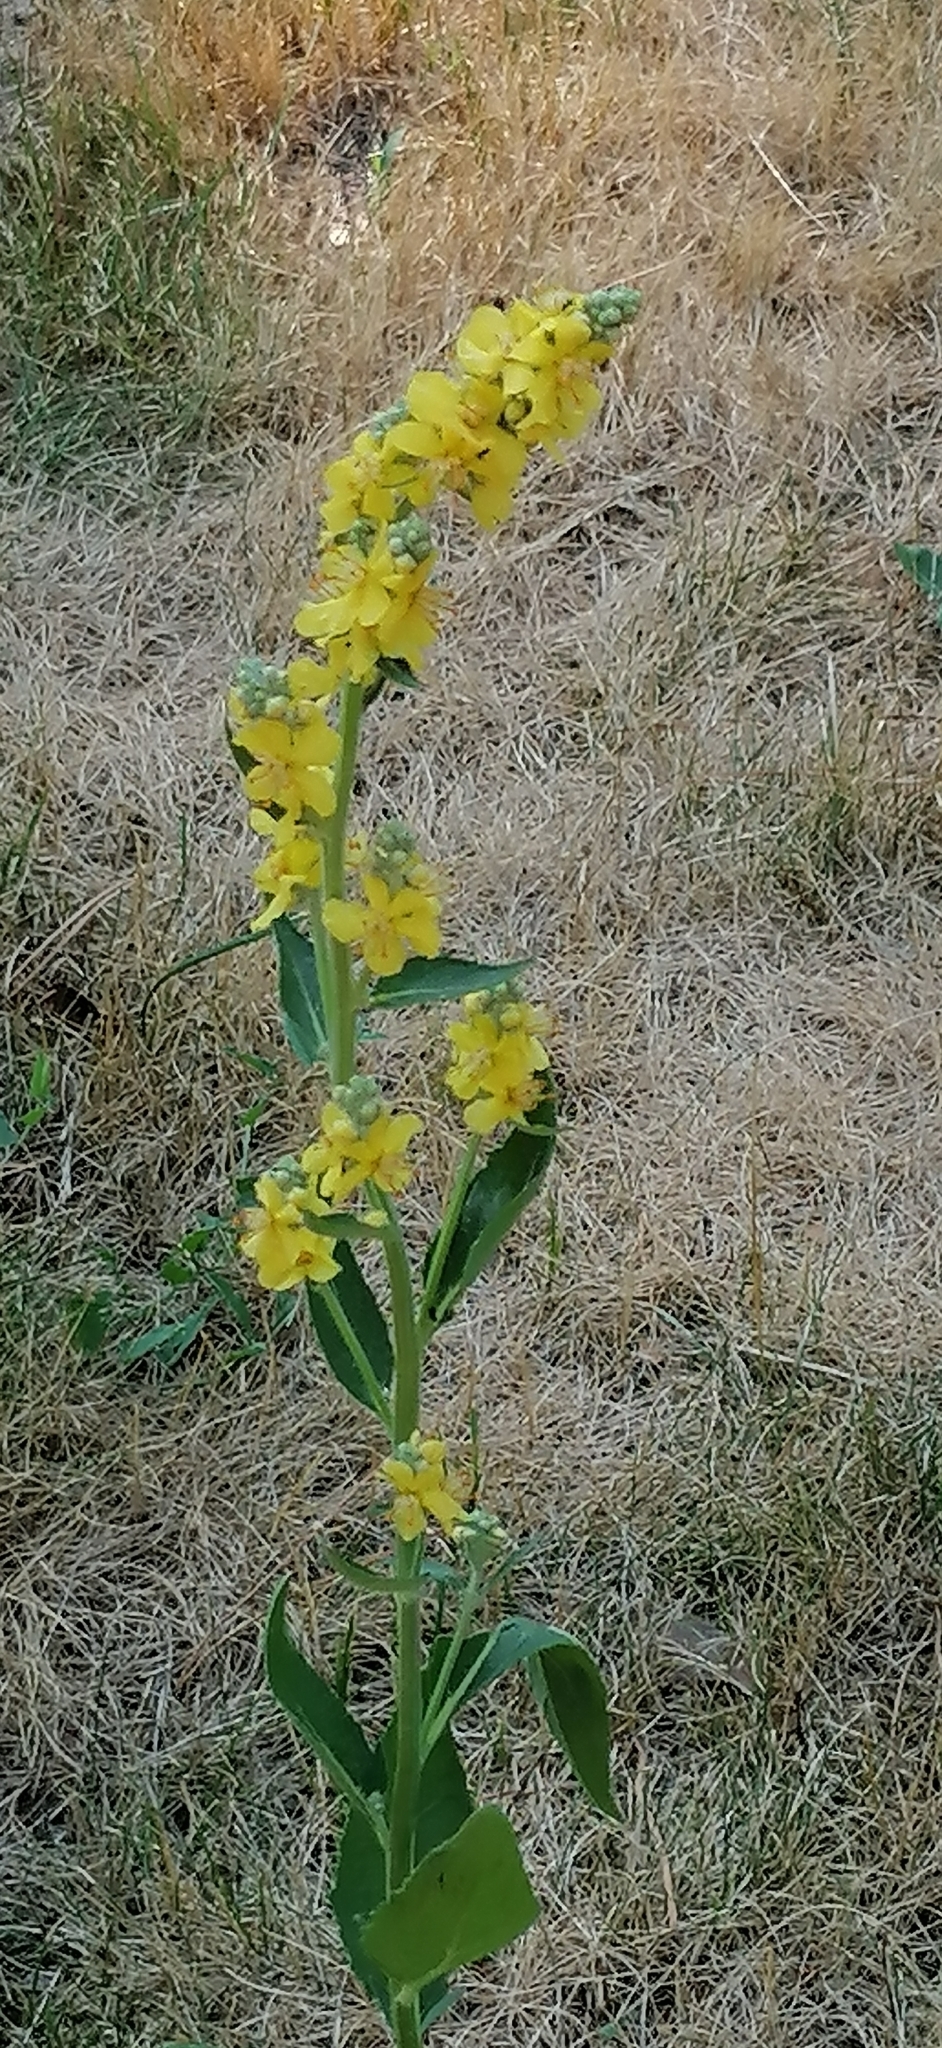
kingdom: Plantae
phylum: Tracheophyta
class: Magnoliopsida
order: Lamiales
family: Scrophulariaceae
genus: Verbascum
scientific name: Verbascum lychnitis
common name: White mullein
